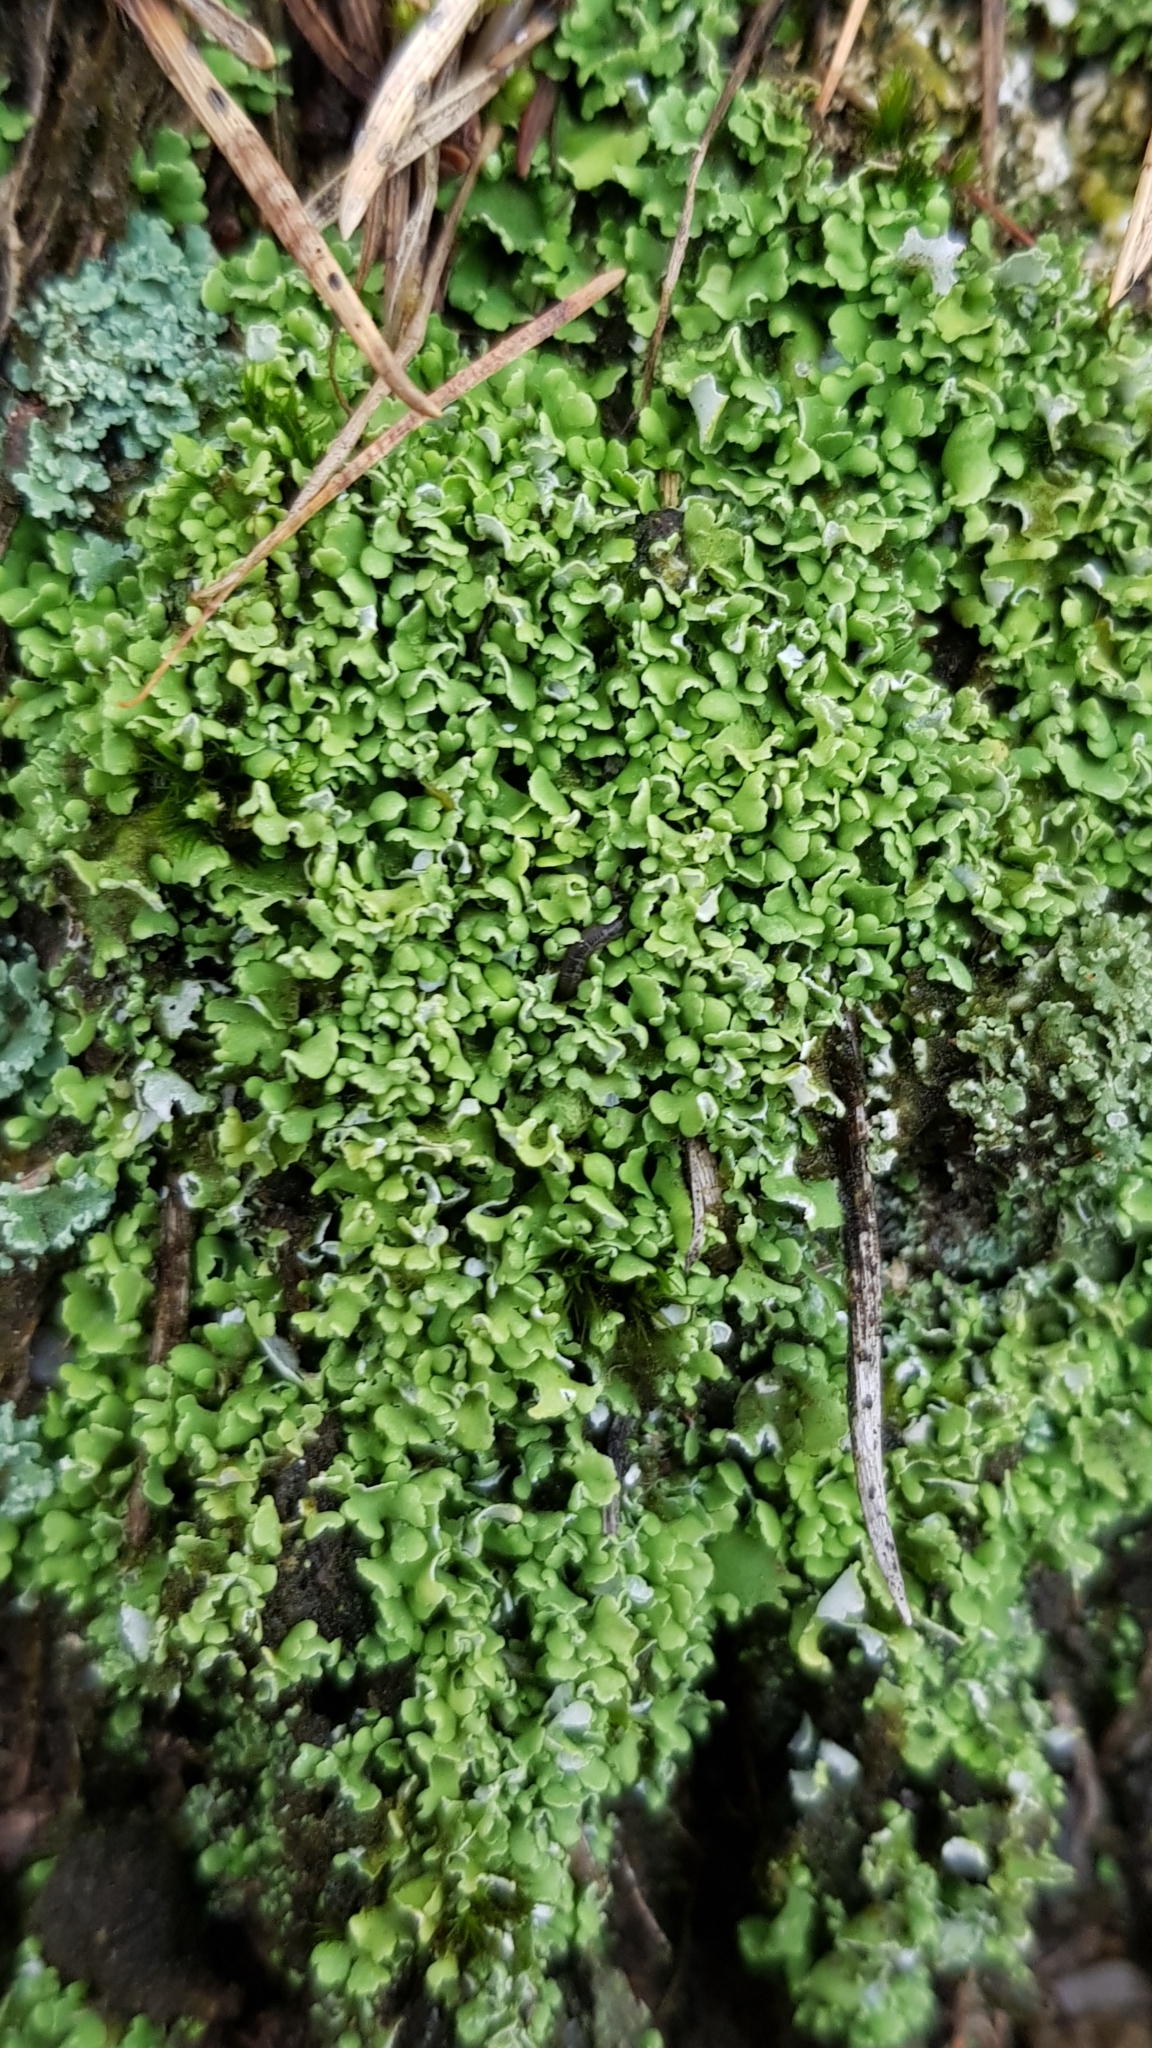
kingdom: Fungi
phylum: Ascomycota
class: Lecanoromycetes
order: Lecanorales
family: Cladoniaceae
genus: Cladonia
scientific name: Cladonia
